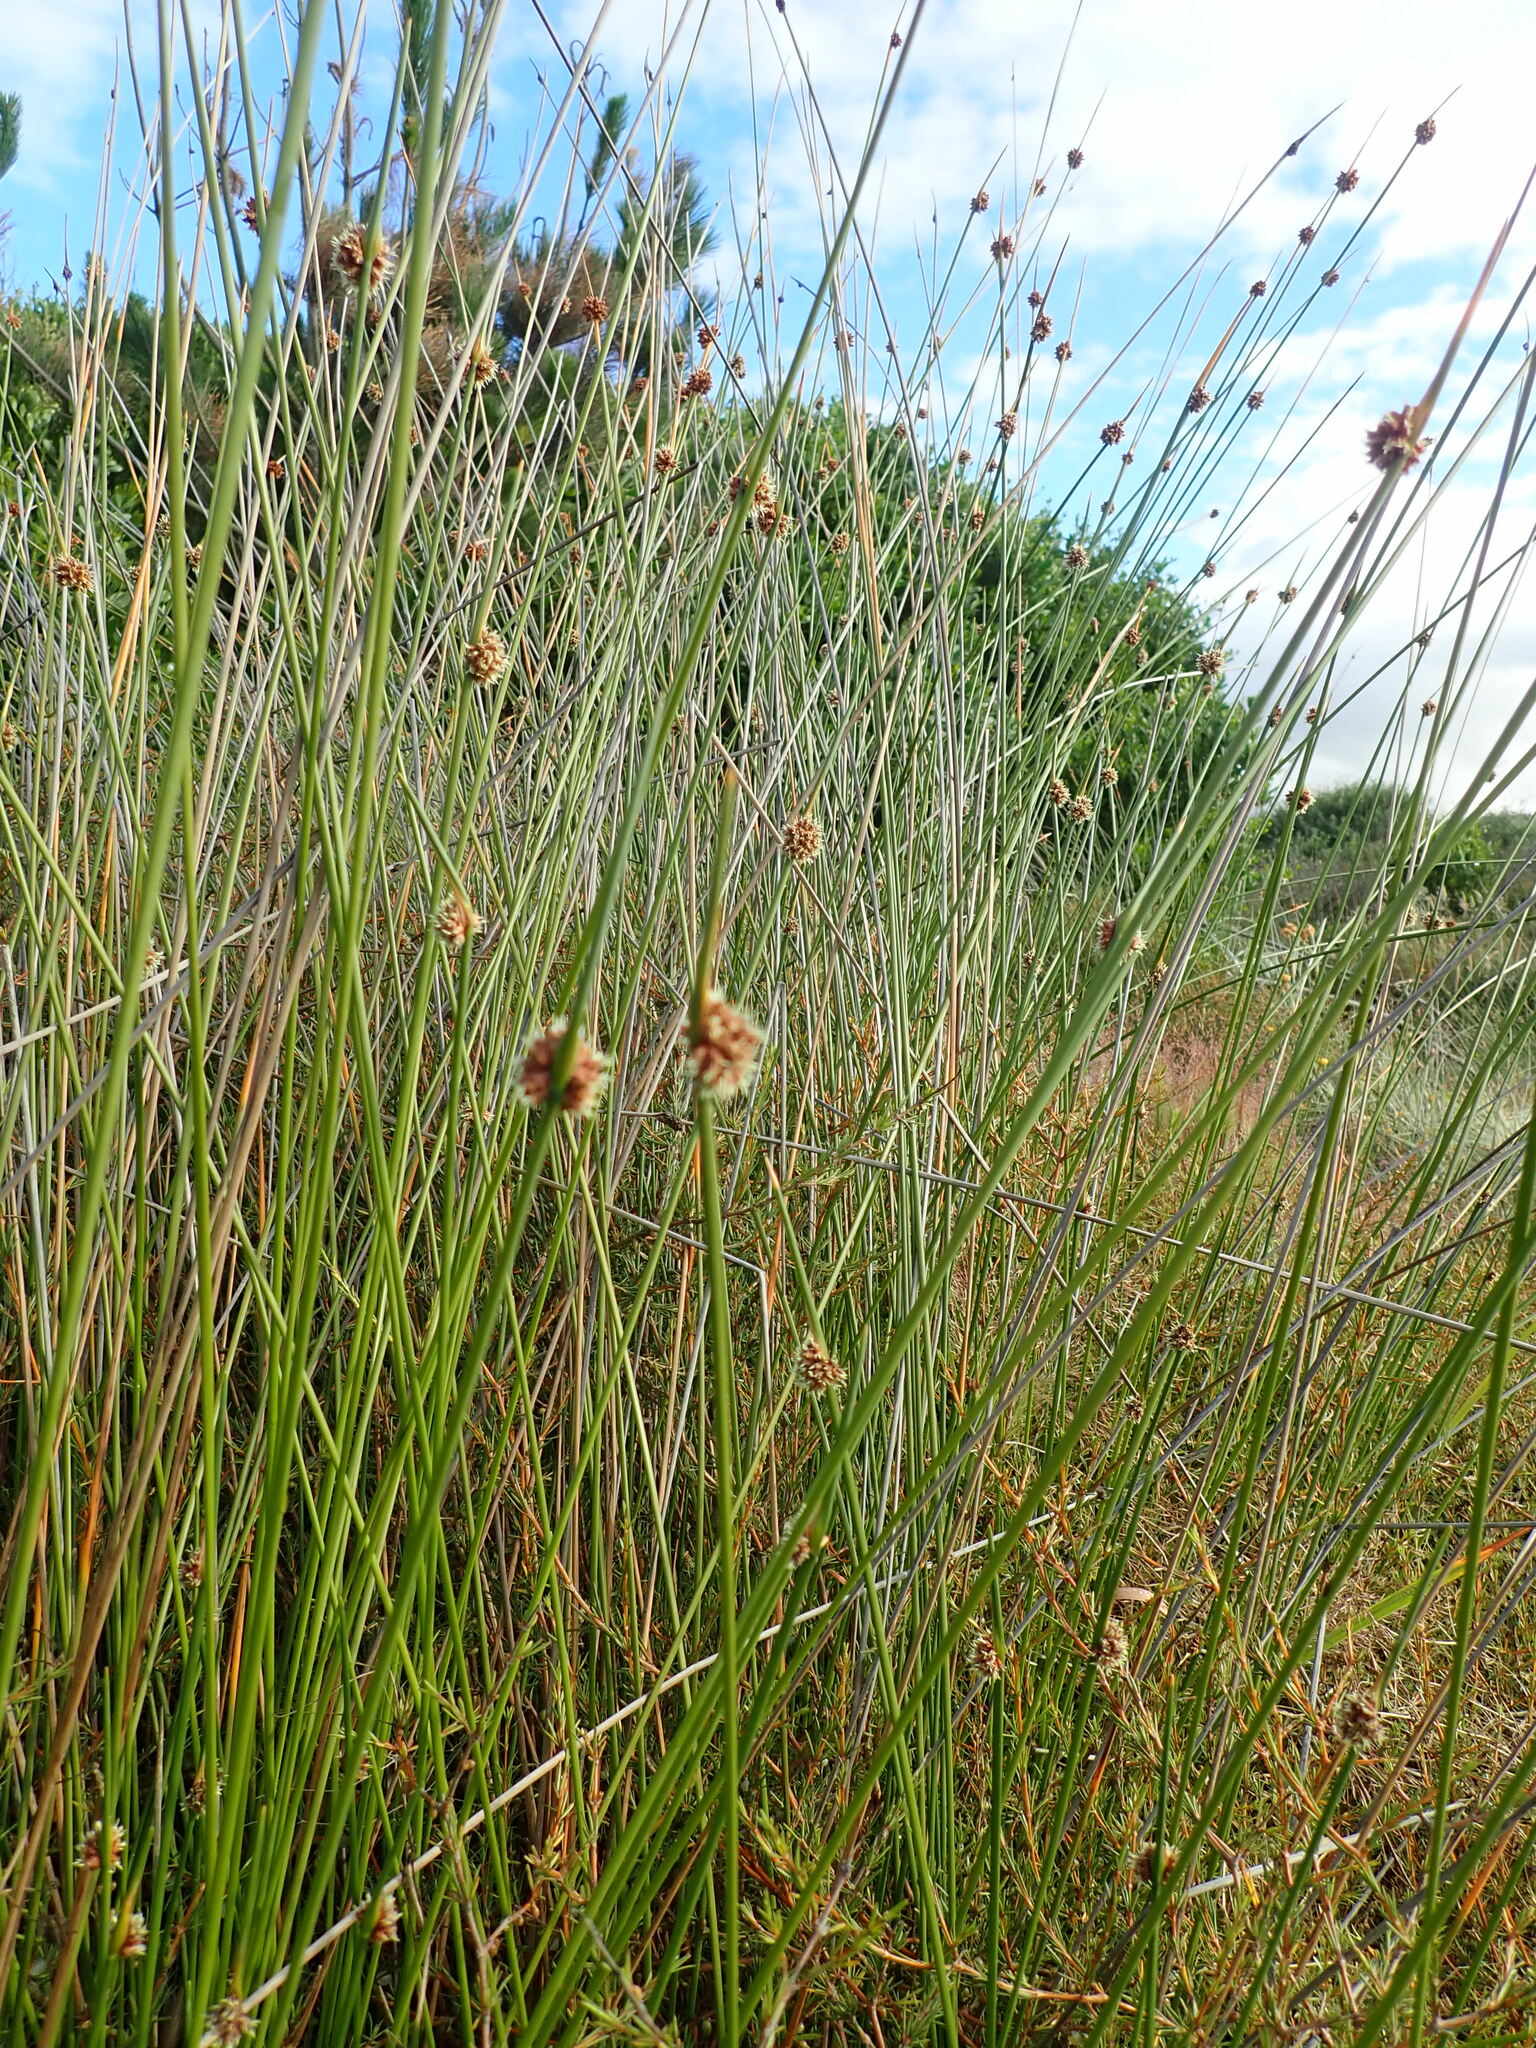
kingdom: Plantae
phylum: Tracheophyta
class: Liliopsida
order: Poales
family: Cyperaceae
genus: Ficinia
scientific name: Ficinia nodosa
